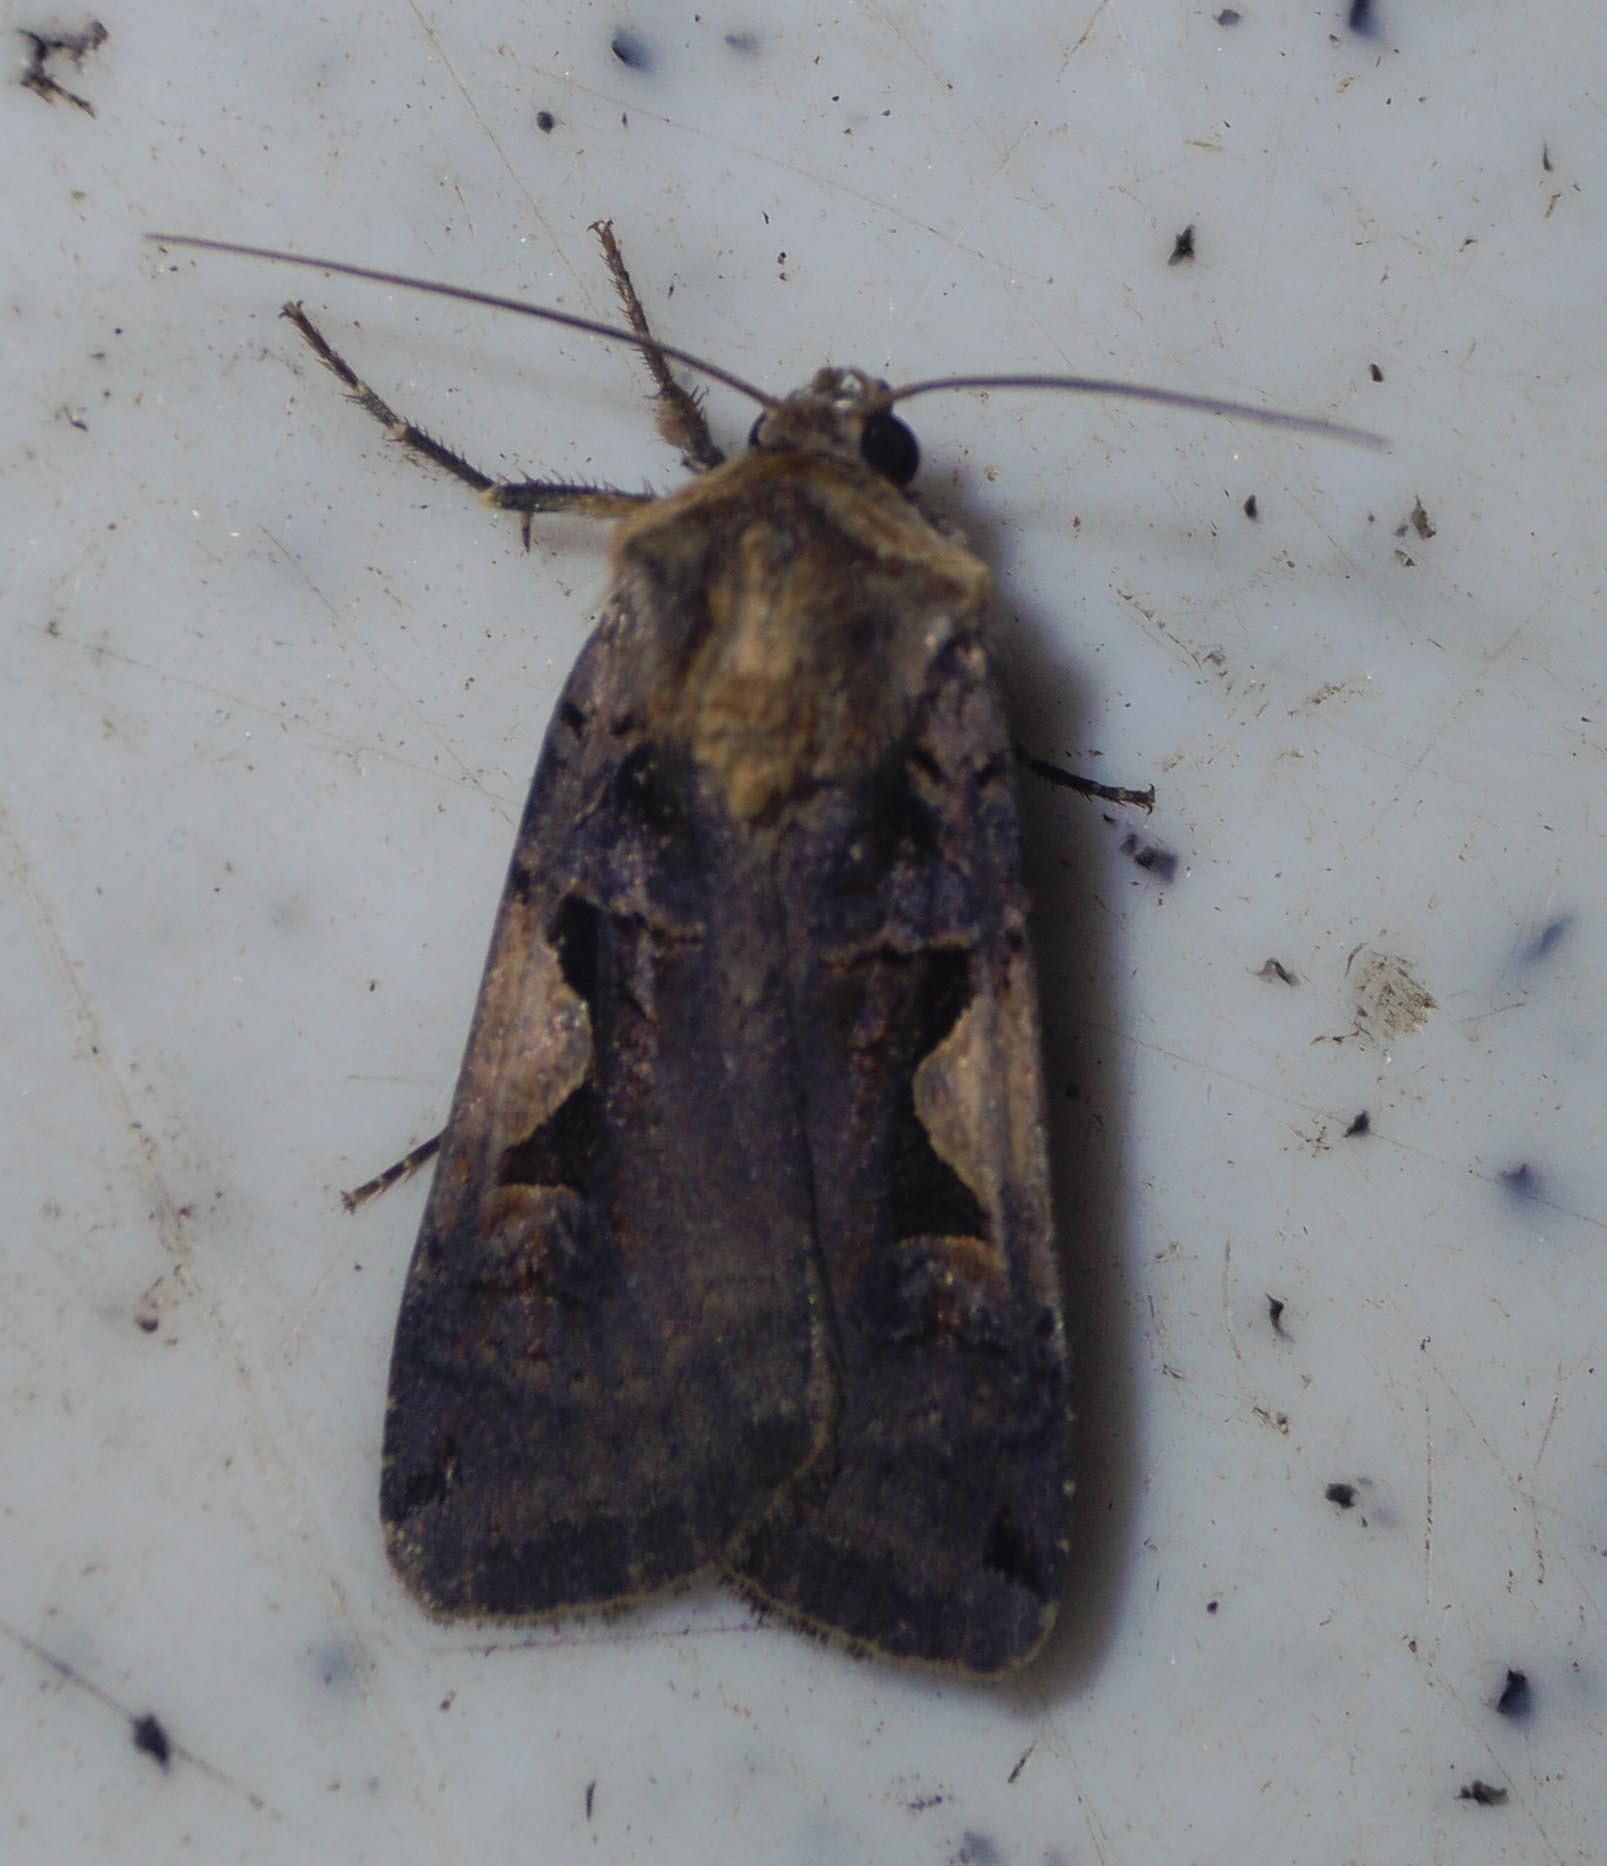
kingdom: Animalia
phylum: Arthropoda
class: Insecta
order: Lepidoptera
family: Noctuidae
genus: Xestia
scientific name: Xestia c-nigrum
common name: Setaceous hebrew character
